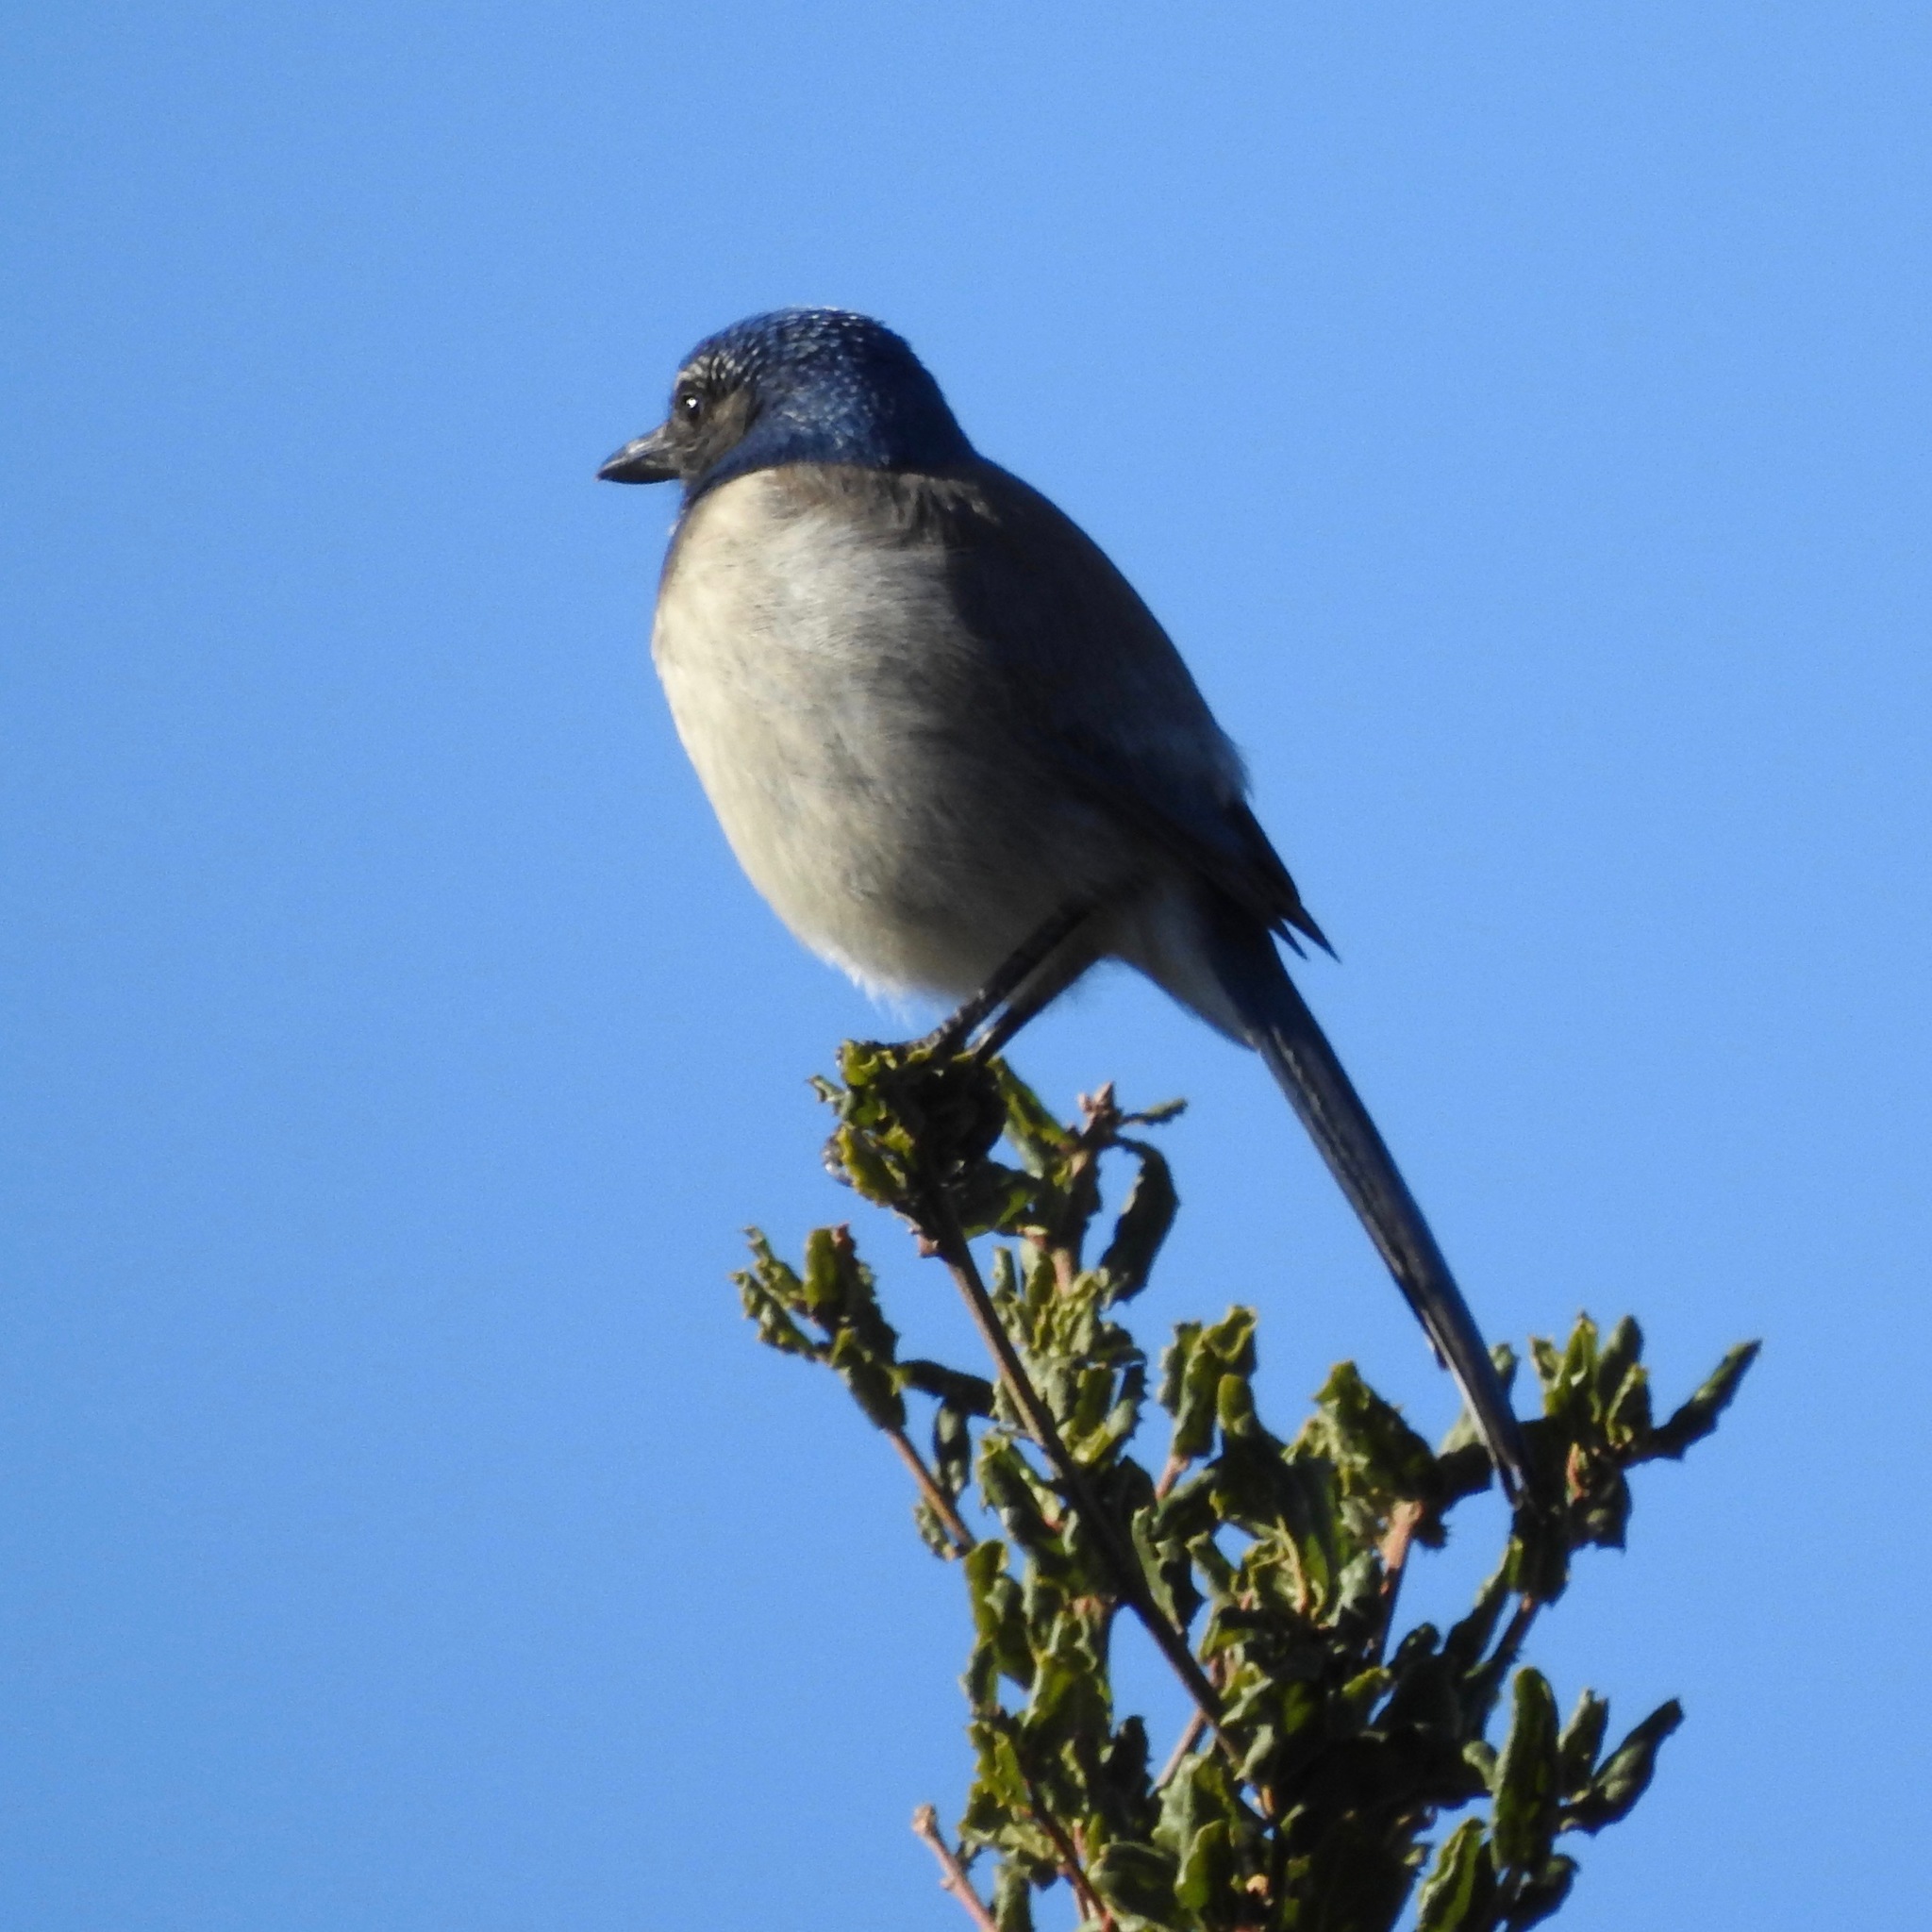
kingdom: Animalia
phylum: Chordata
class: Aves
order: Passeriformes
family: Corvidae
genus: Aphelocoma
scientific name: Aphelocoma californica
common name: California scrub-jay
